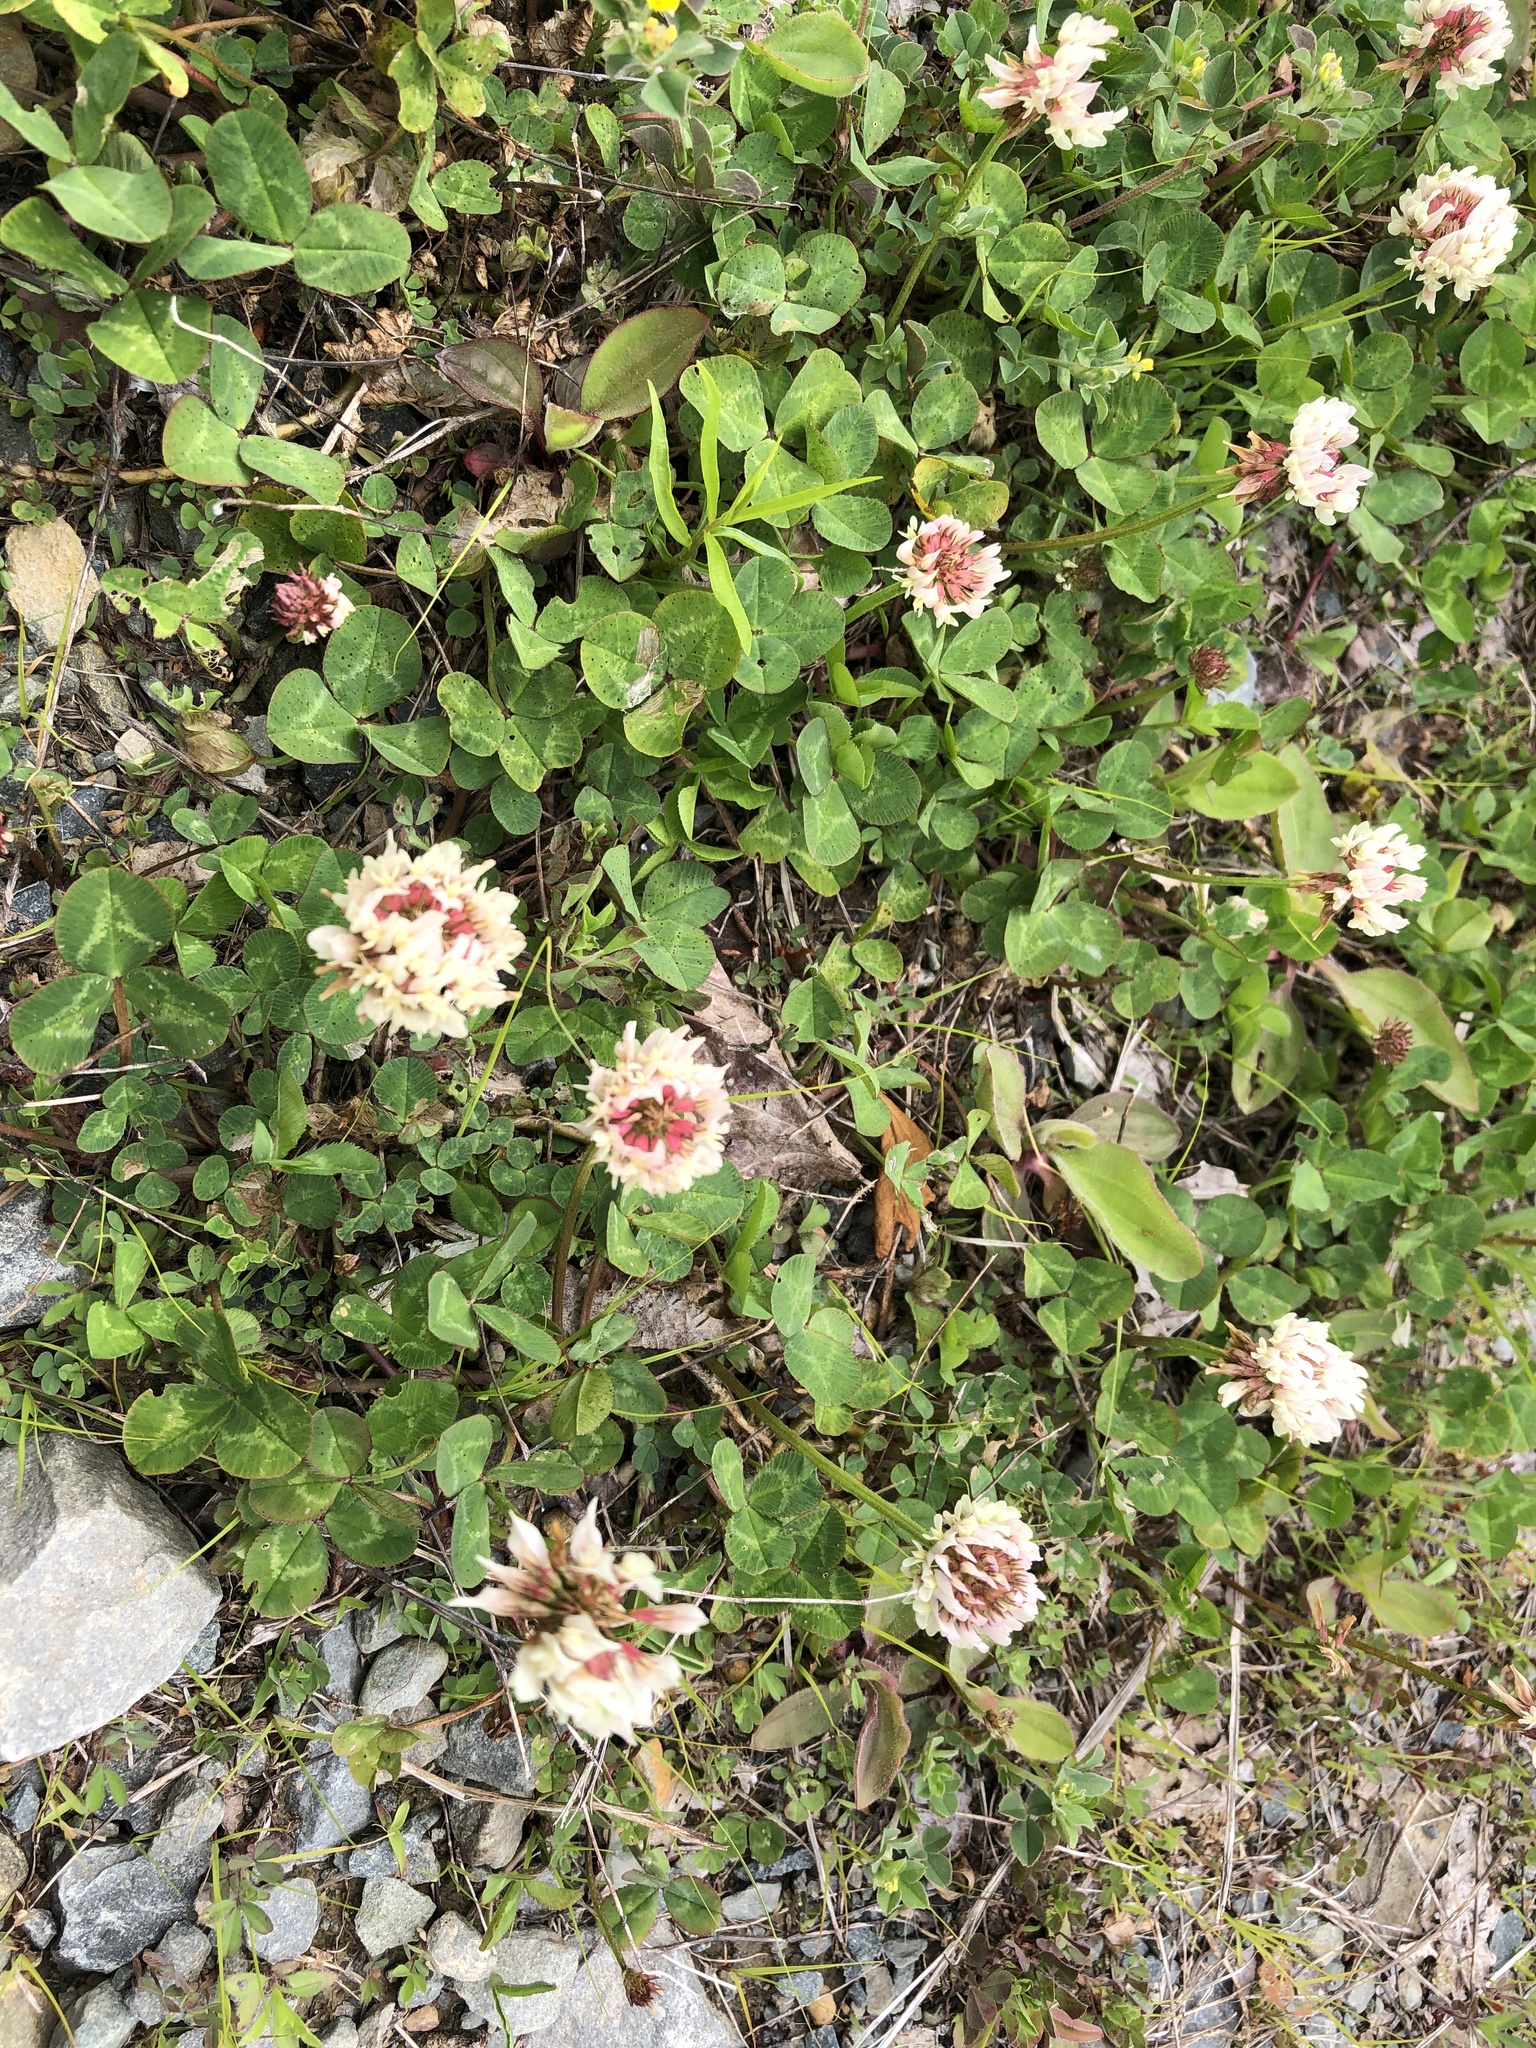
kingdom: Plantae
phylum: Tracheophyta
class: Magnoliopsida
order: Fabales
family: Fabaceae
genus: Trifolium
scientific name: Trifolium repens
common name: White clover
